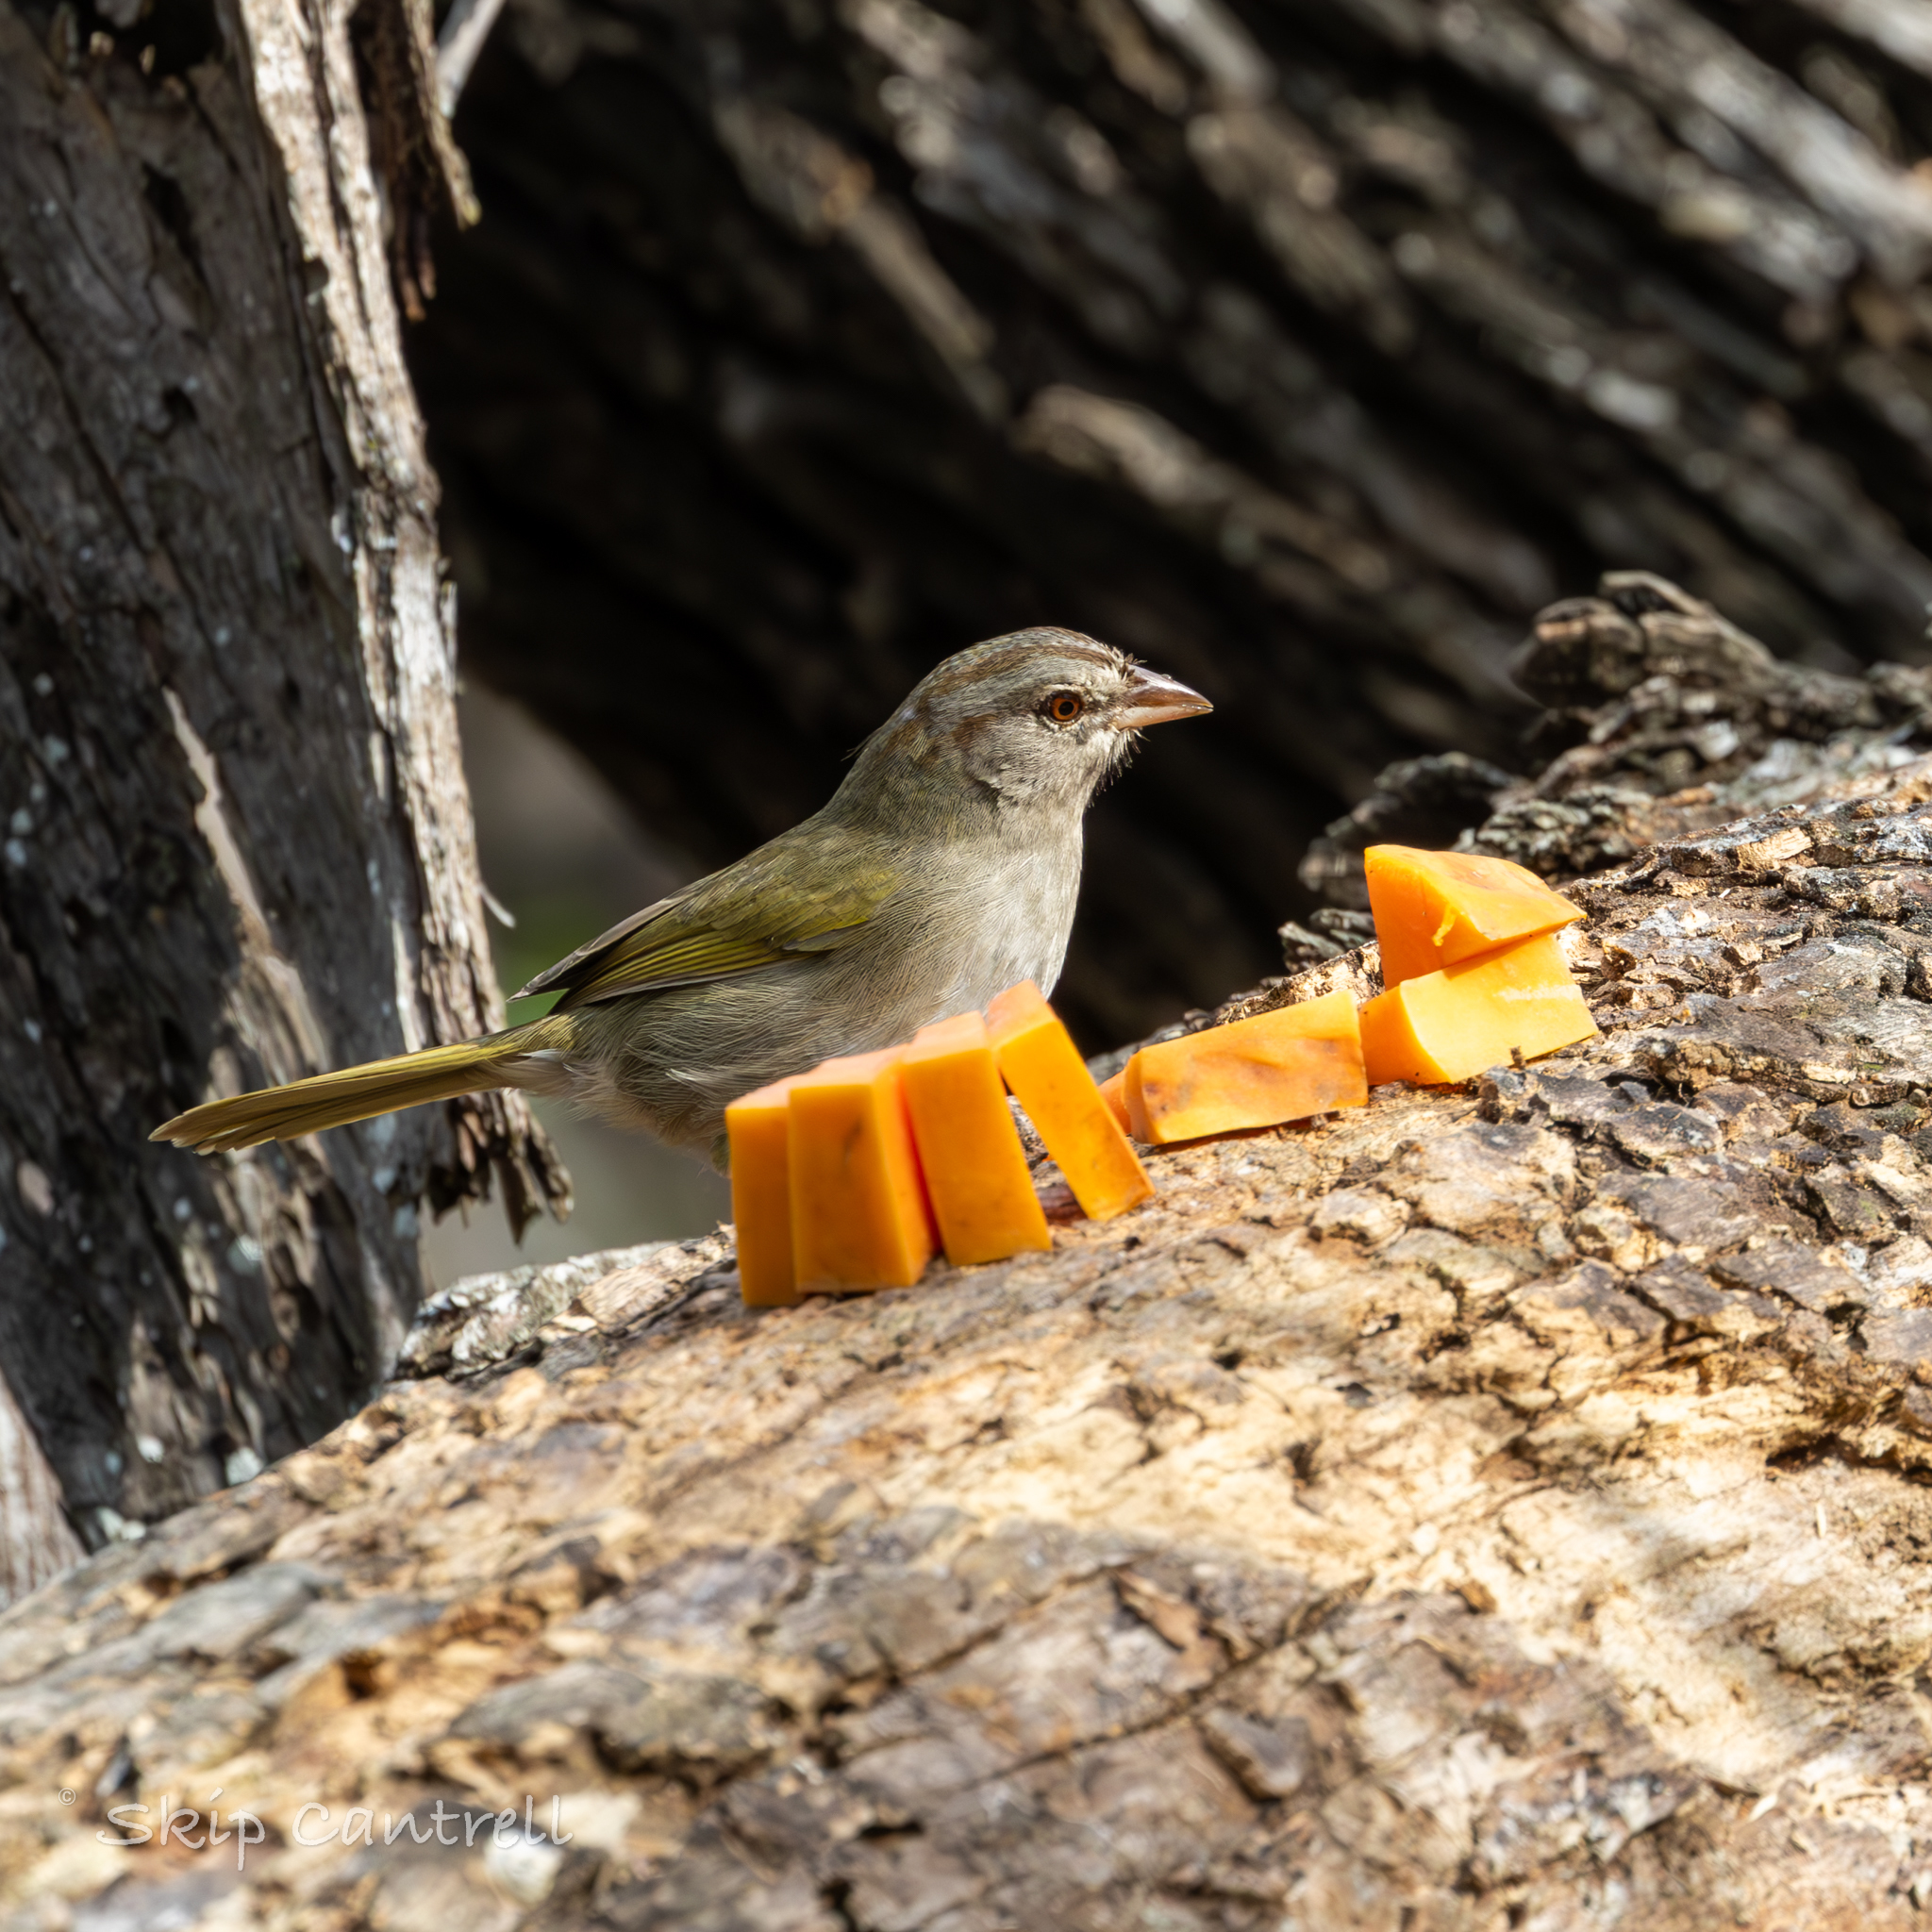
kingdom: Animalia
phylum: Chordata
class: Aves
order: Passeriformes
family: Passerellidae
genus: Arremonops
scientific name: Arremonops rufivirgatus
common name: Olive sparrow
